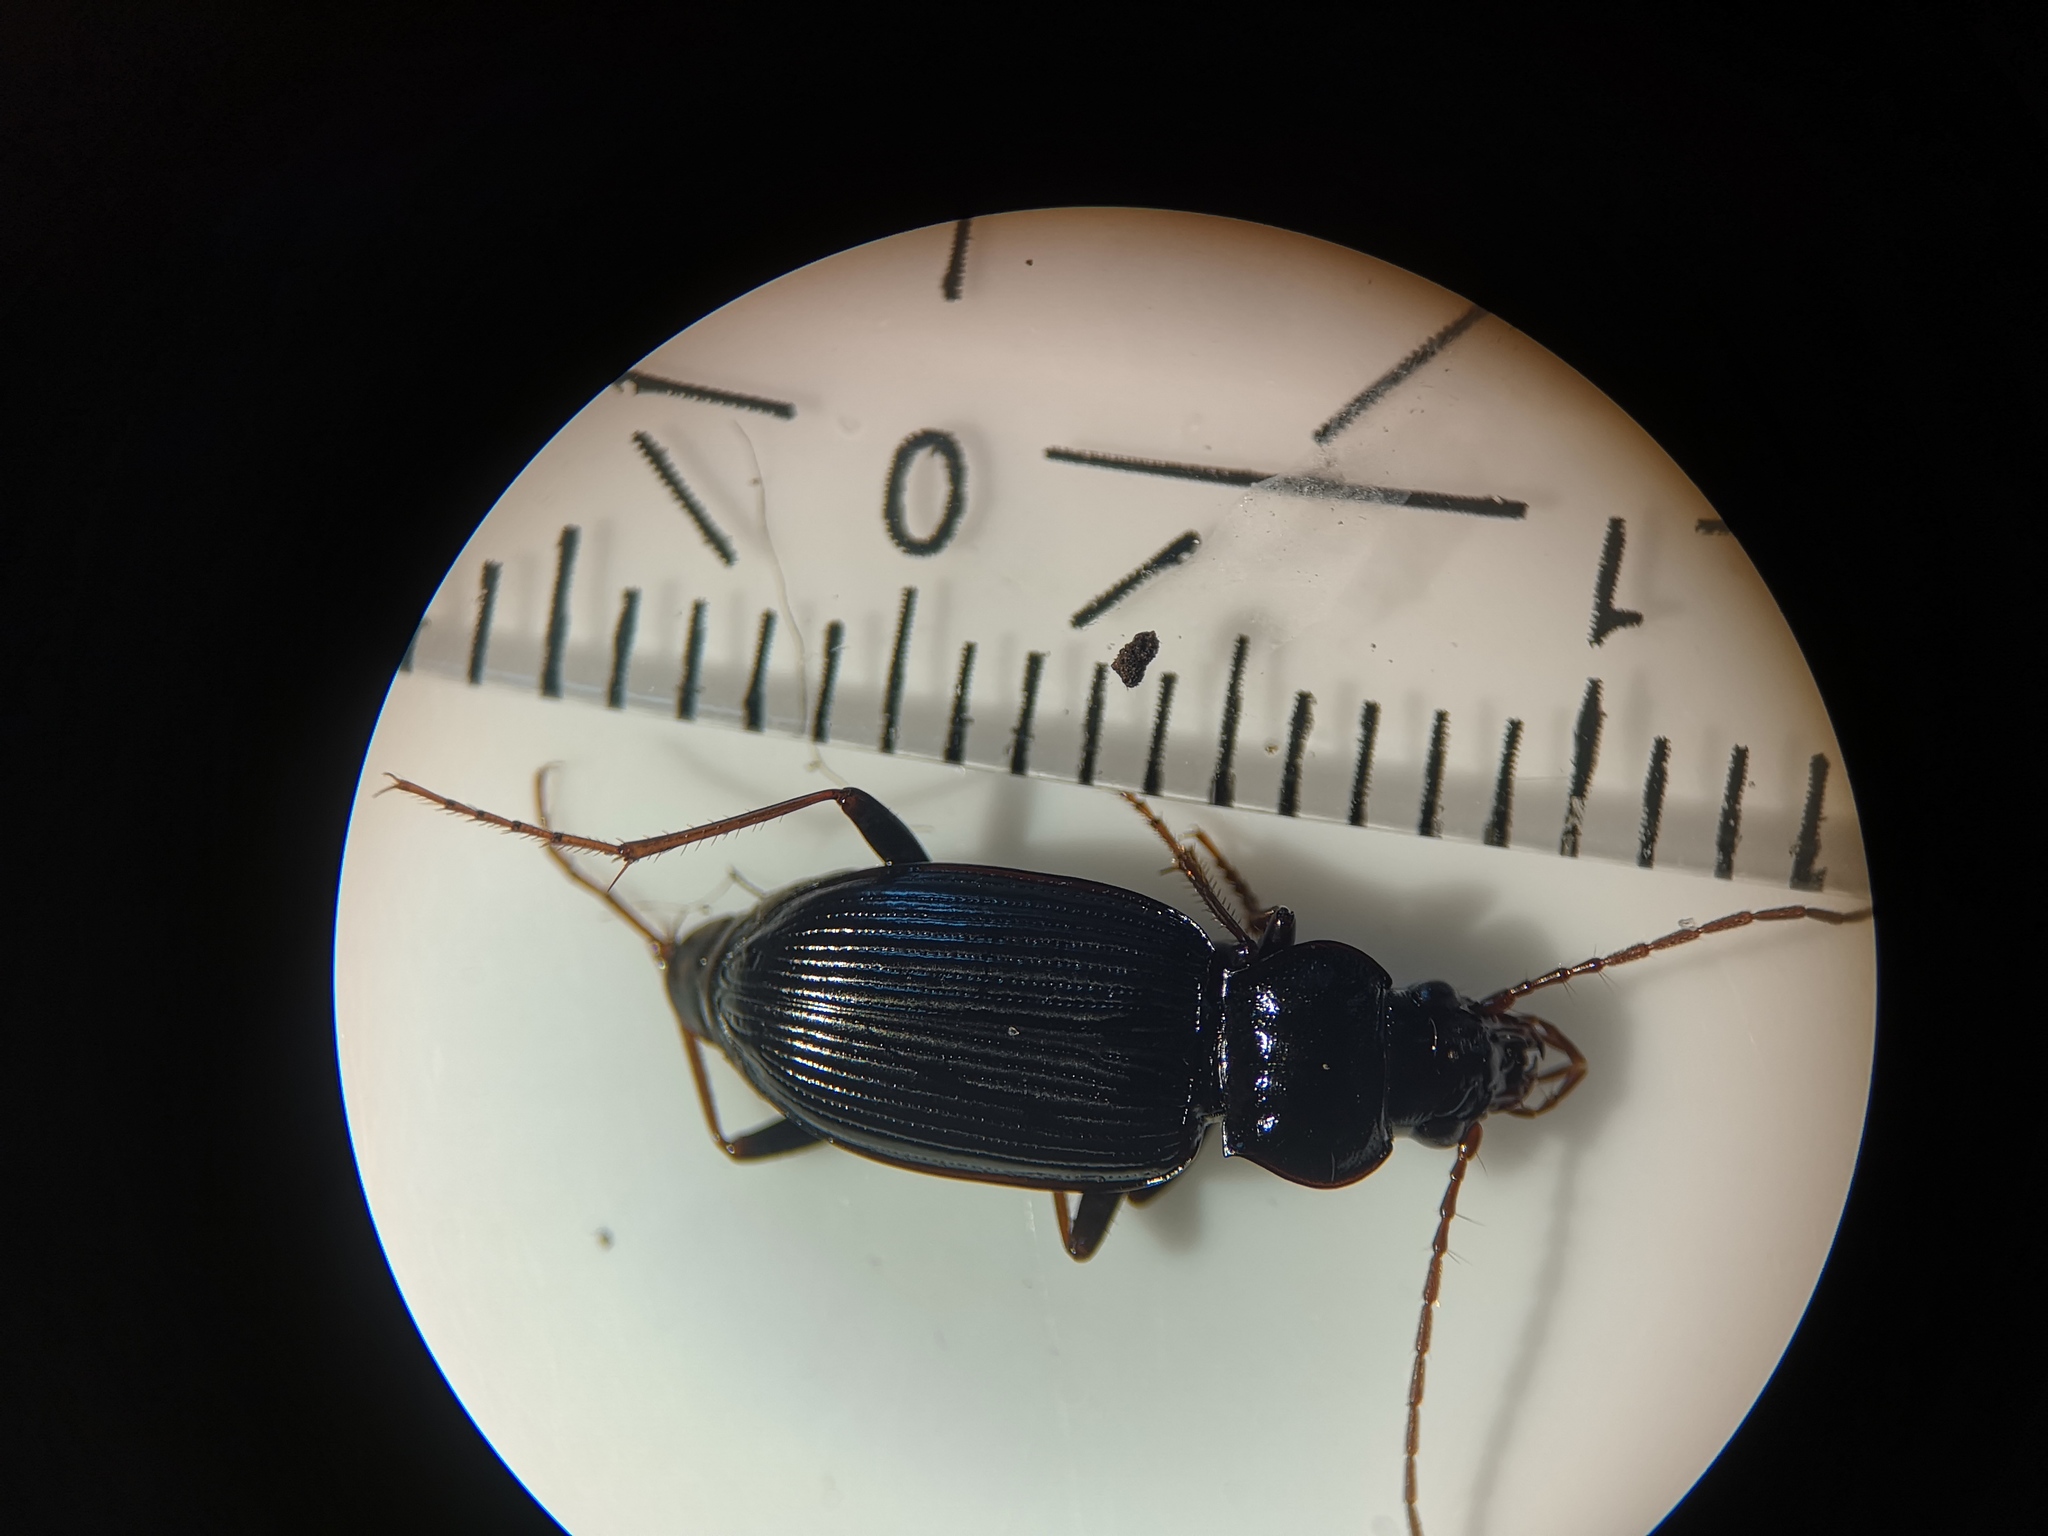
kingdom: Animalia
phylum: Arthropoda
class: Insecta
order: Coleoptera
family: Carabidae
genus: Nebria
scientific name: Nebria brevicollis
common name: Short-necked gazelle beetle
